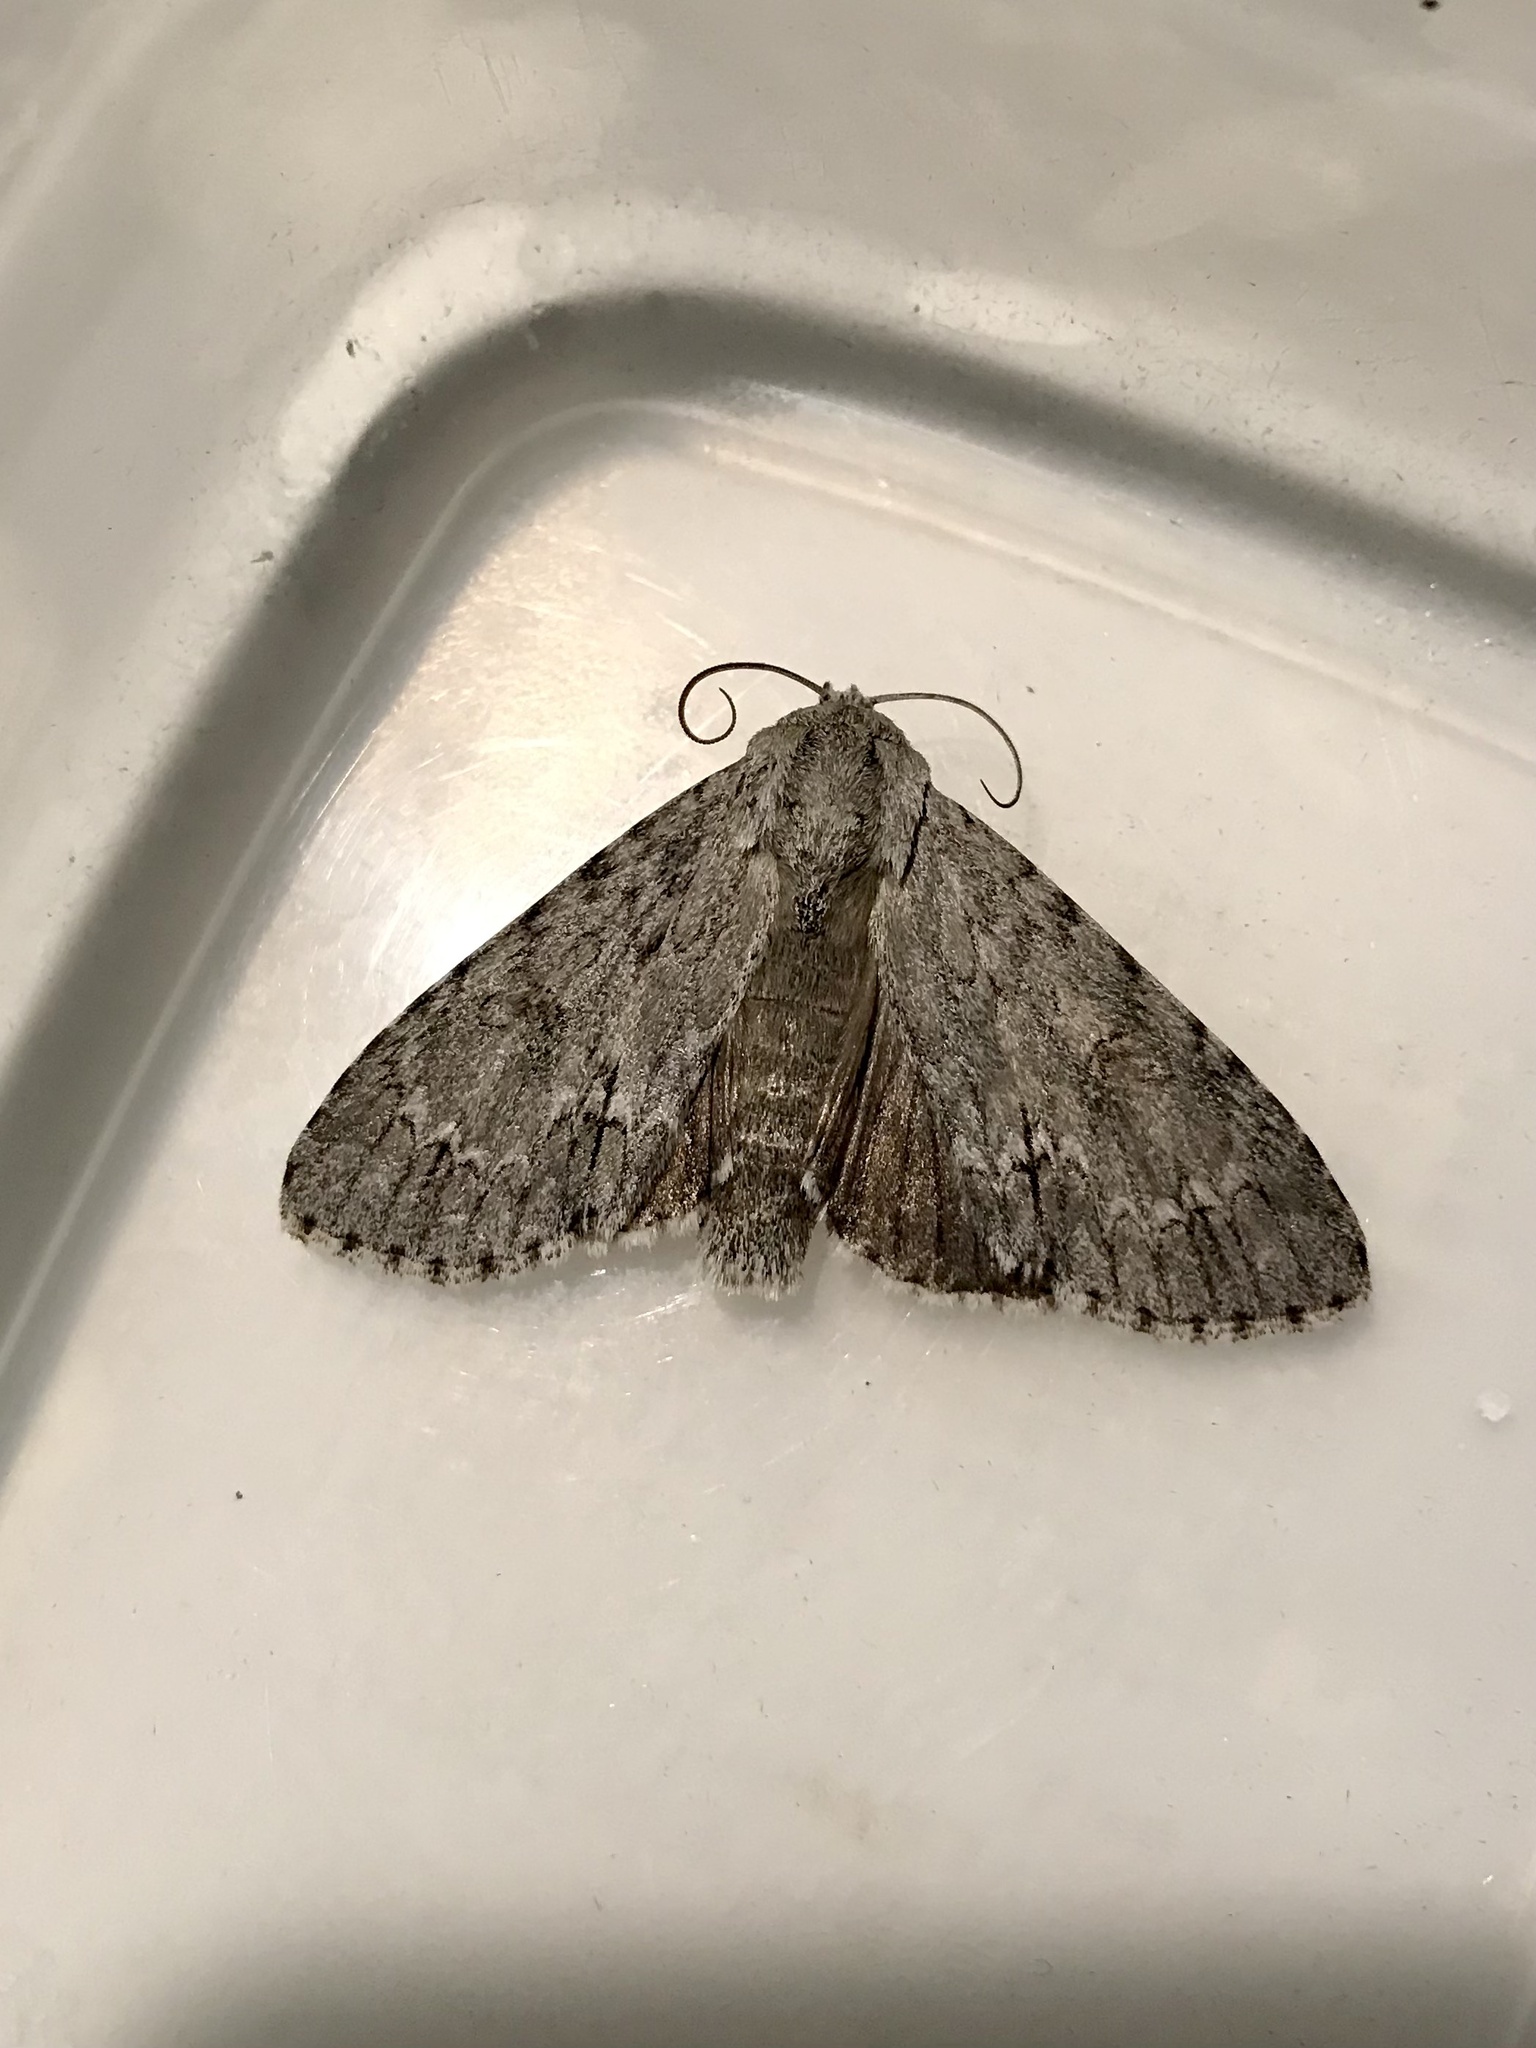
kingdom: Animalia
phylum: Arthropoda
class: Insecta
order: Lepidoptera
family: Noctuidae
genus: Acronicta
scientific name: Acronicta americana
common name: American dagger
